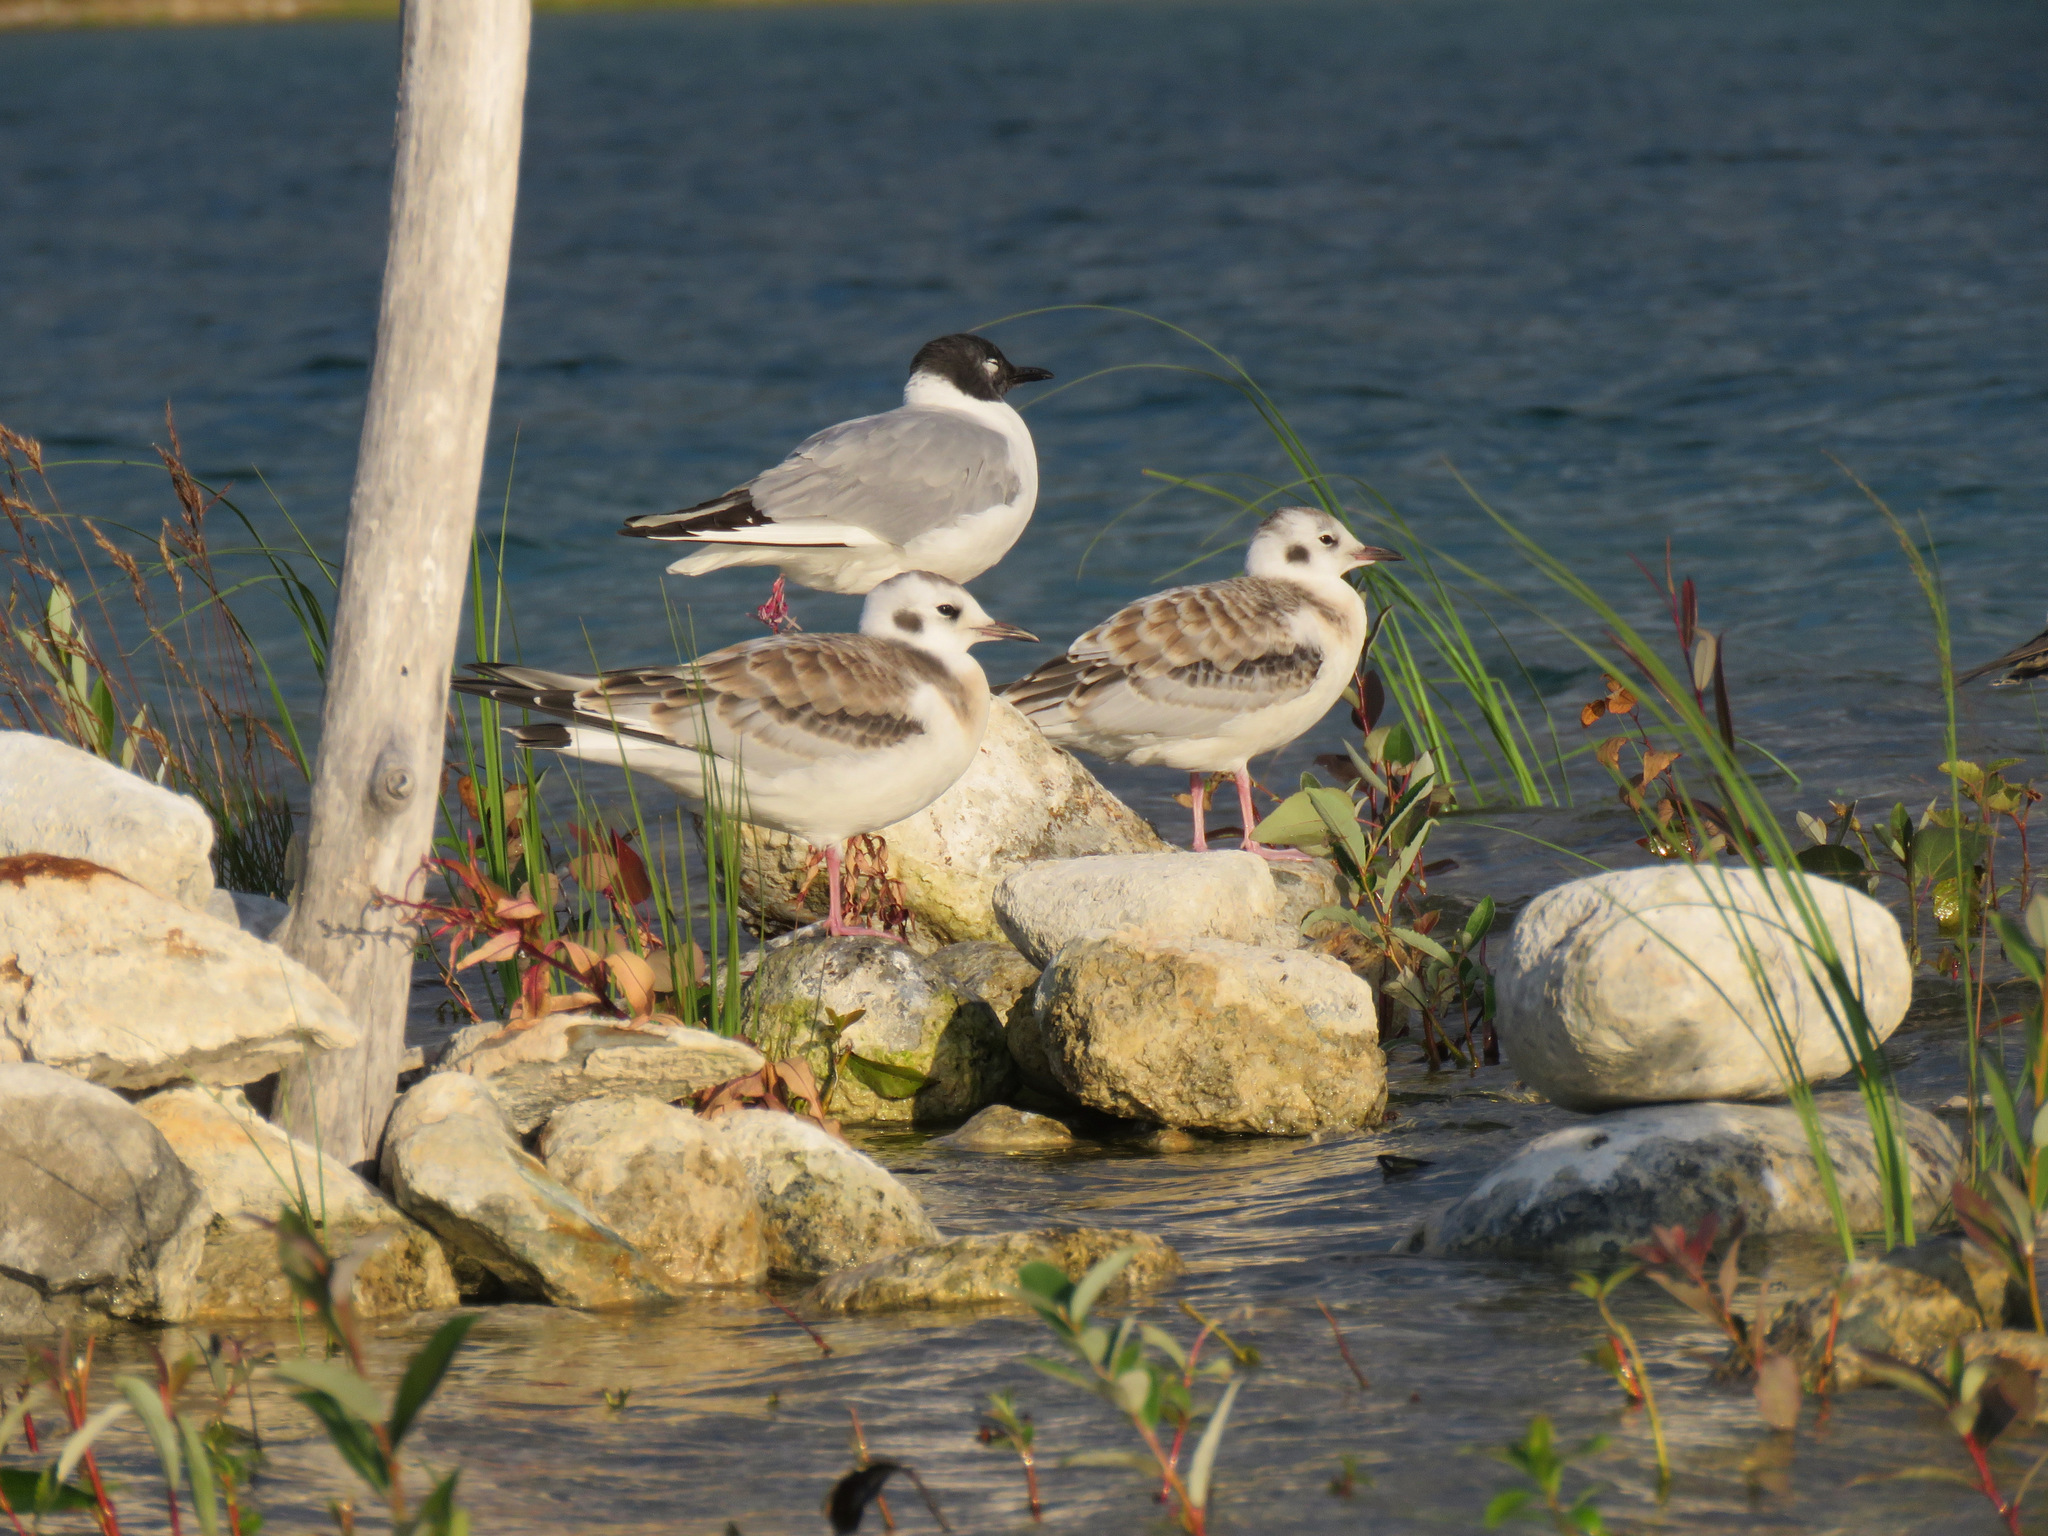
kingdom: Animalia
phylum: Chordata
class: Aves
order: Charadriiformes
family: Laridae
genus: Chroicocephalus
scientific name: Chroicocephalus philadelphia
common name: Bonaparte's gull
